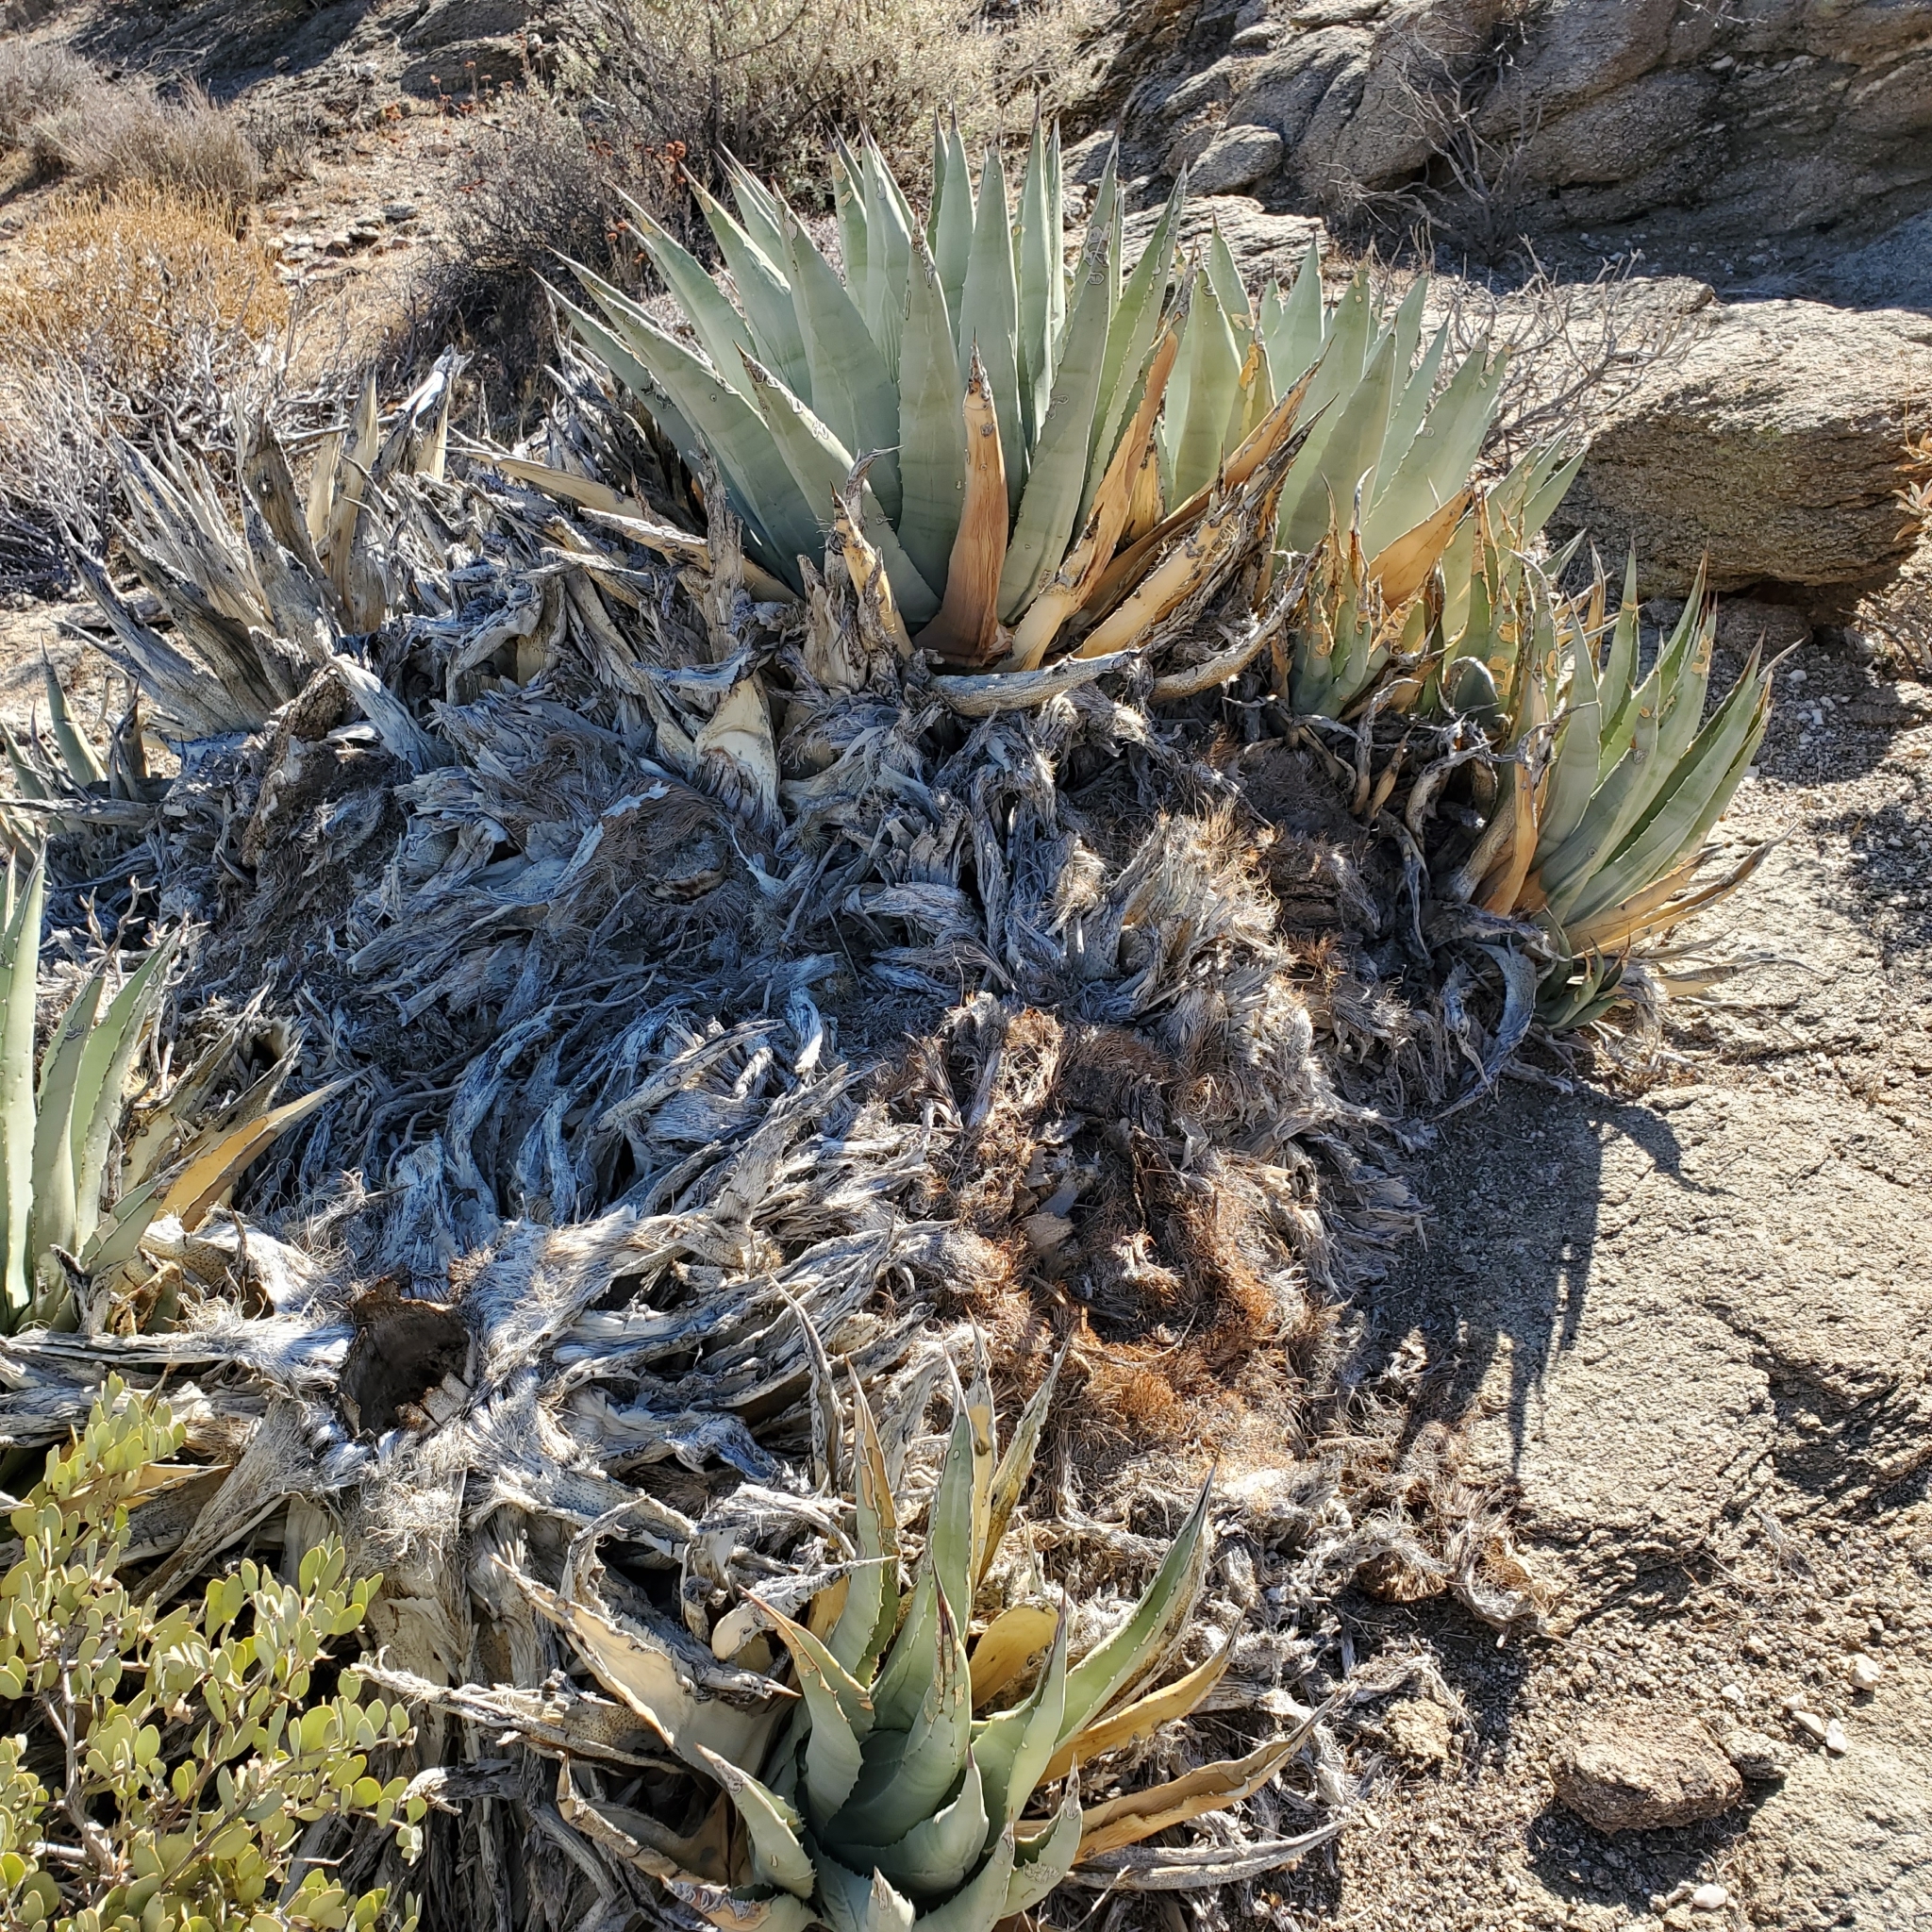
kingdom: Plantae
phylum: Tracheophyta
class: Liliopsida
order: Asparagales
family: Asparagaceae
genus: Agave
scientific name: Agave deserti
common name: Desert agave
